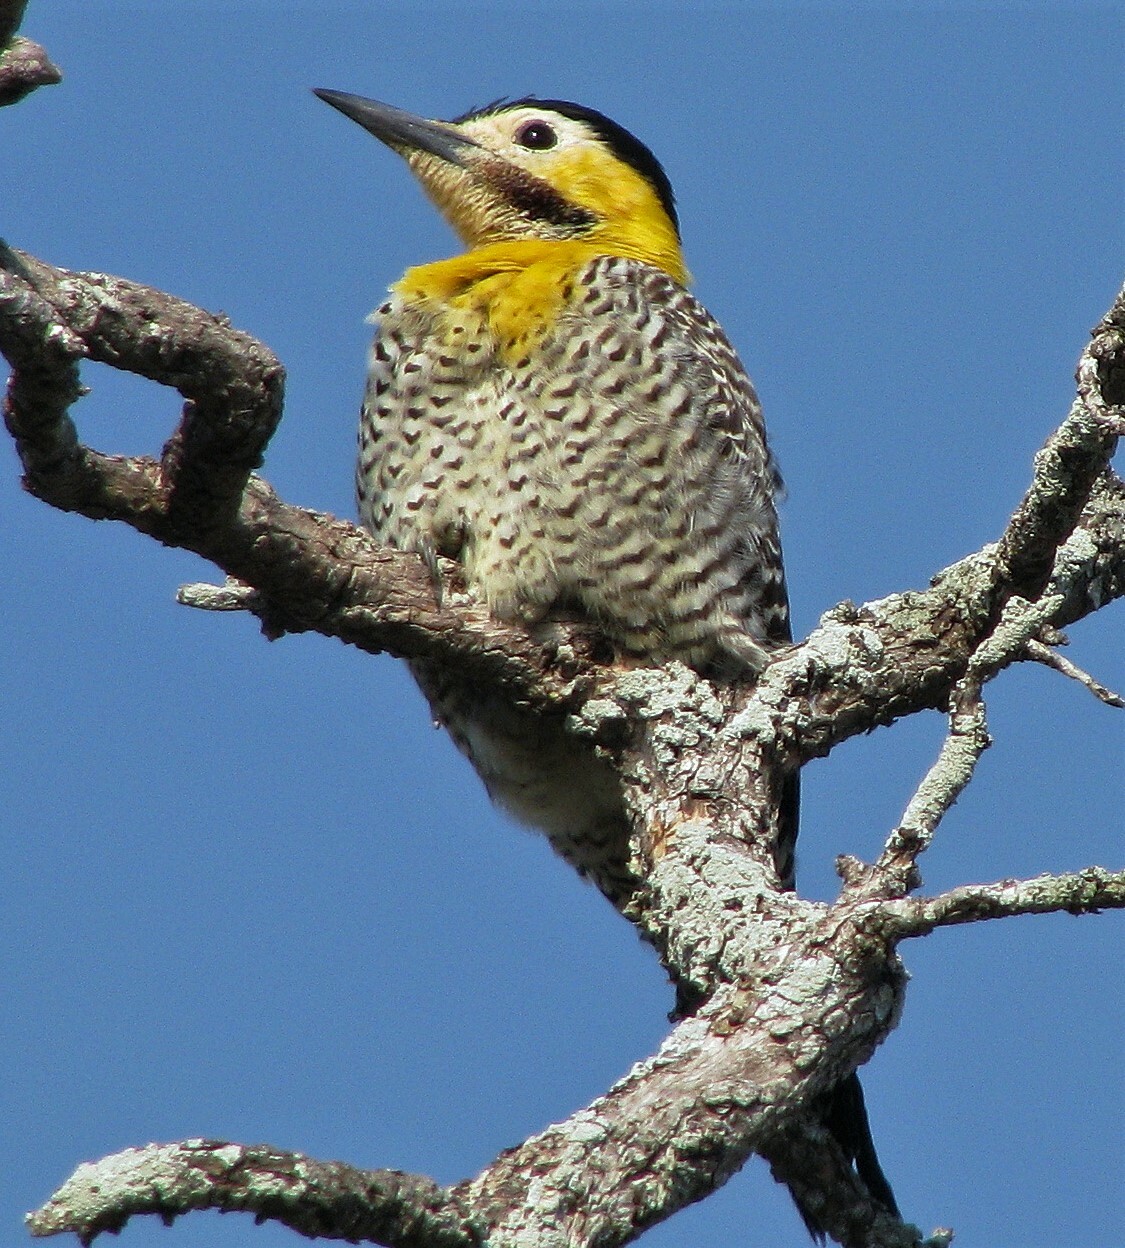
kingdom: Animalia
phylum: Chordata
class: Aves
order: Piciformes
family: Picidae
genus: Colaptes
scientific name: Colaptes campestris
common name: Campo flicker
